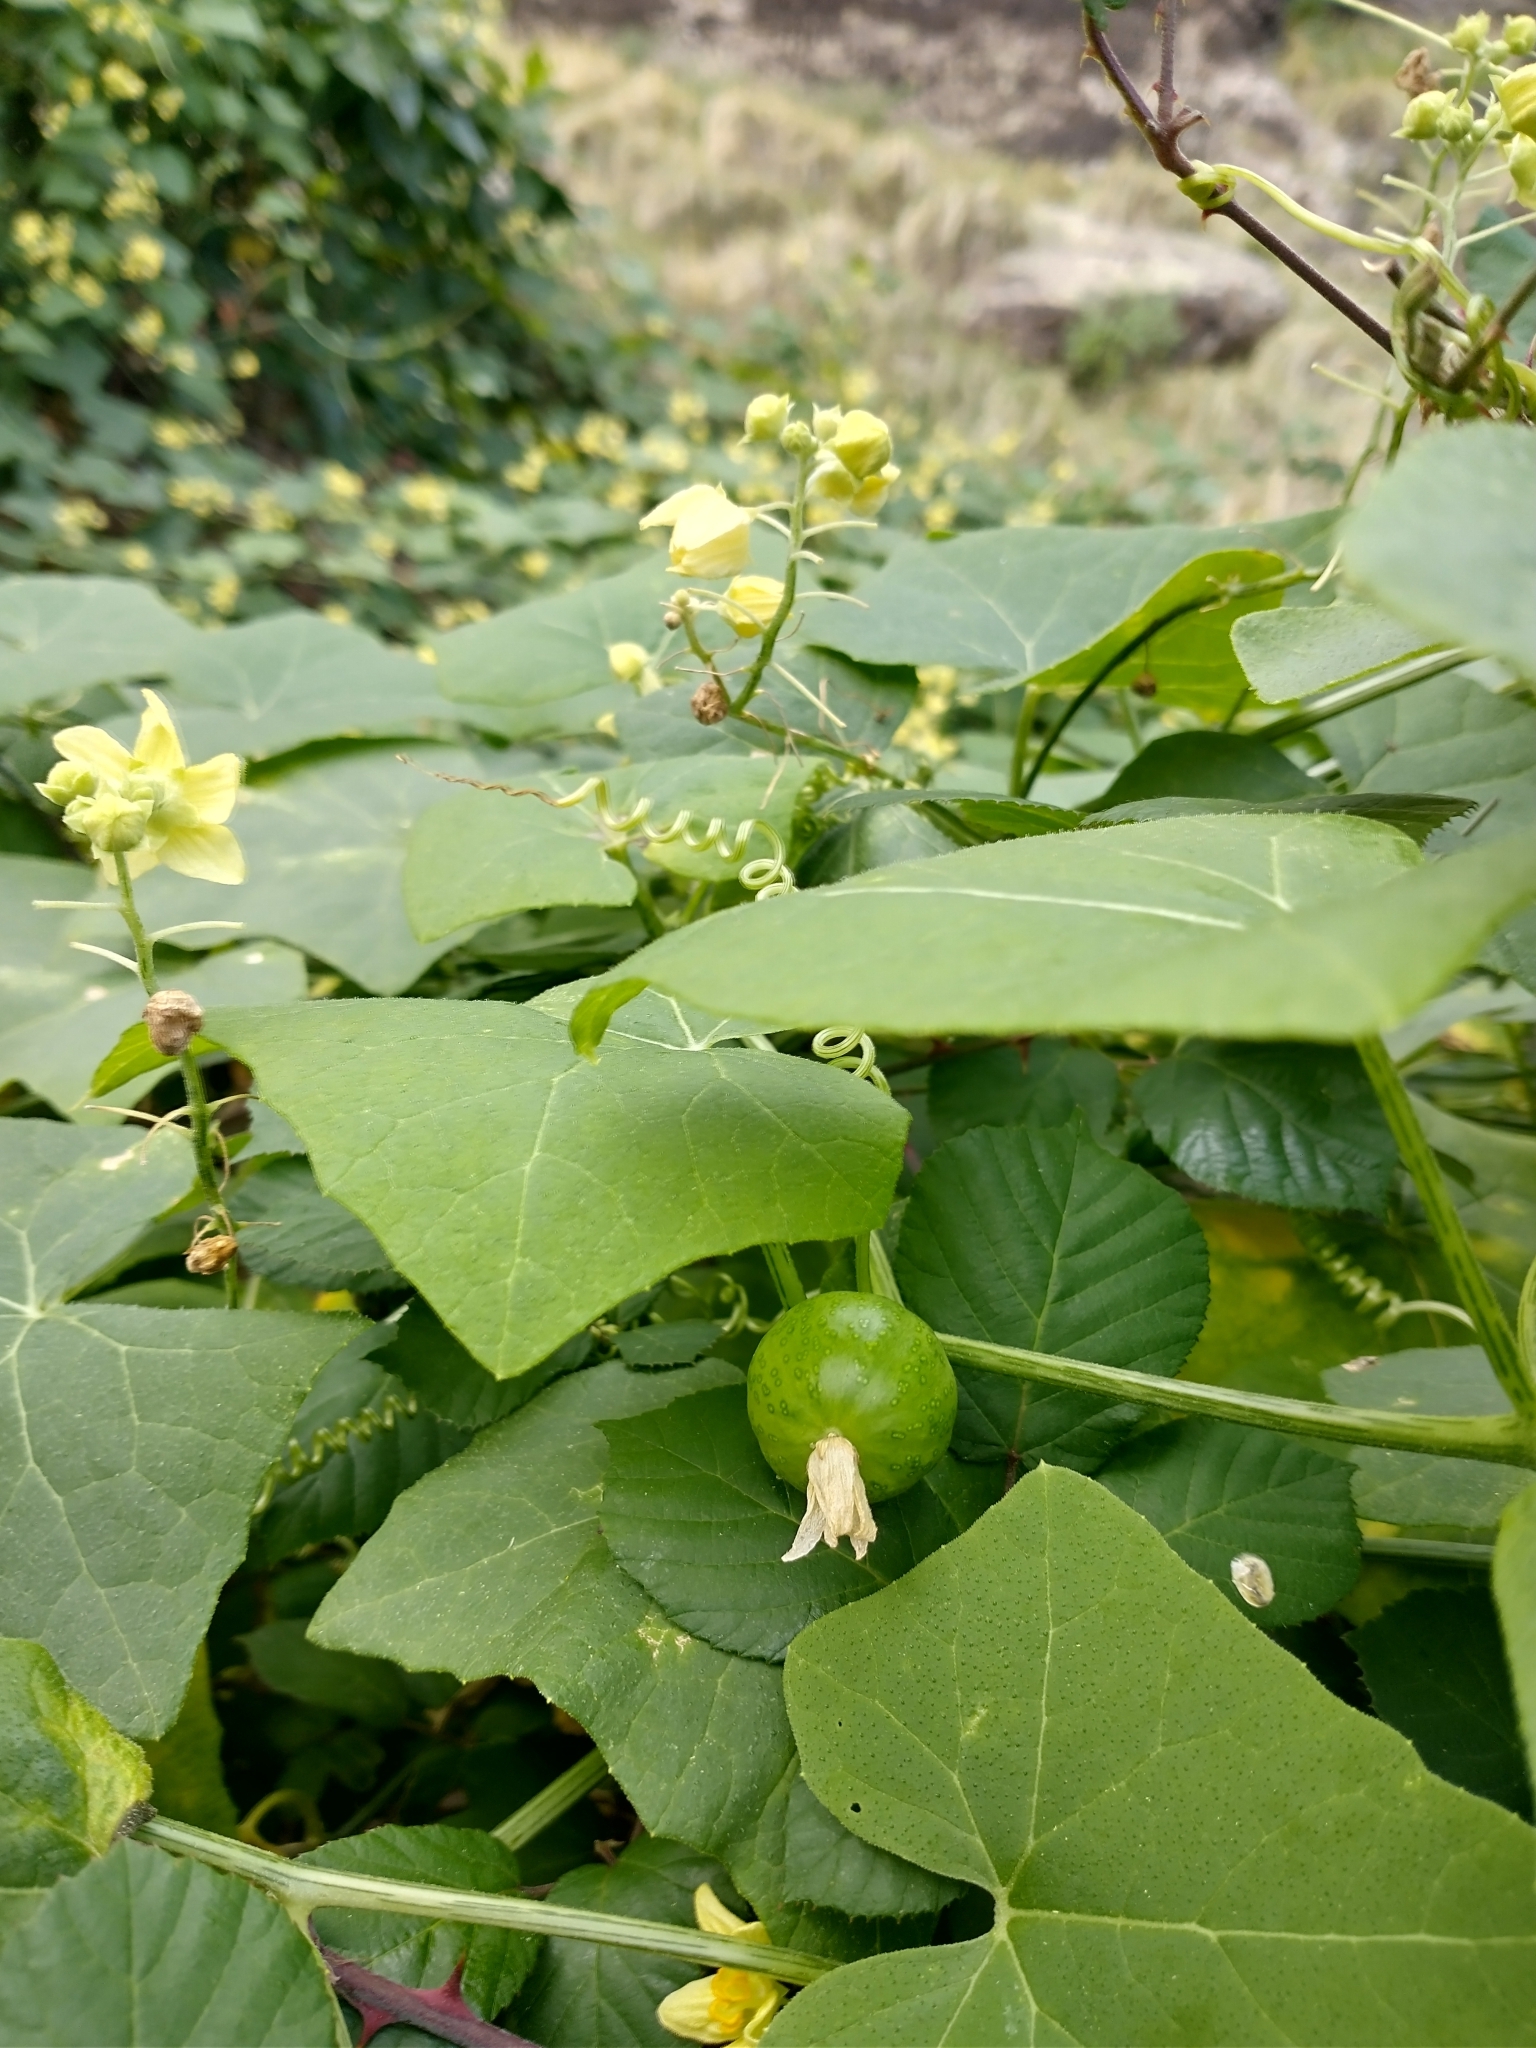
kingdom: Plantae
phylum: Tracheophyta
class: Magnoliopsida
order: Cucurbitales
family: Cucurbitaceae
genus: Bryonia
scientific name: Bryonia verrucosa
